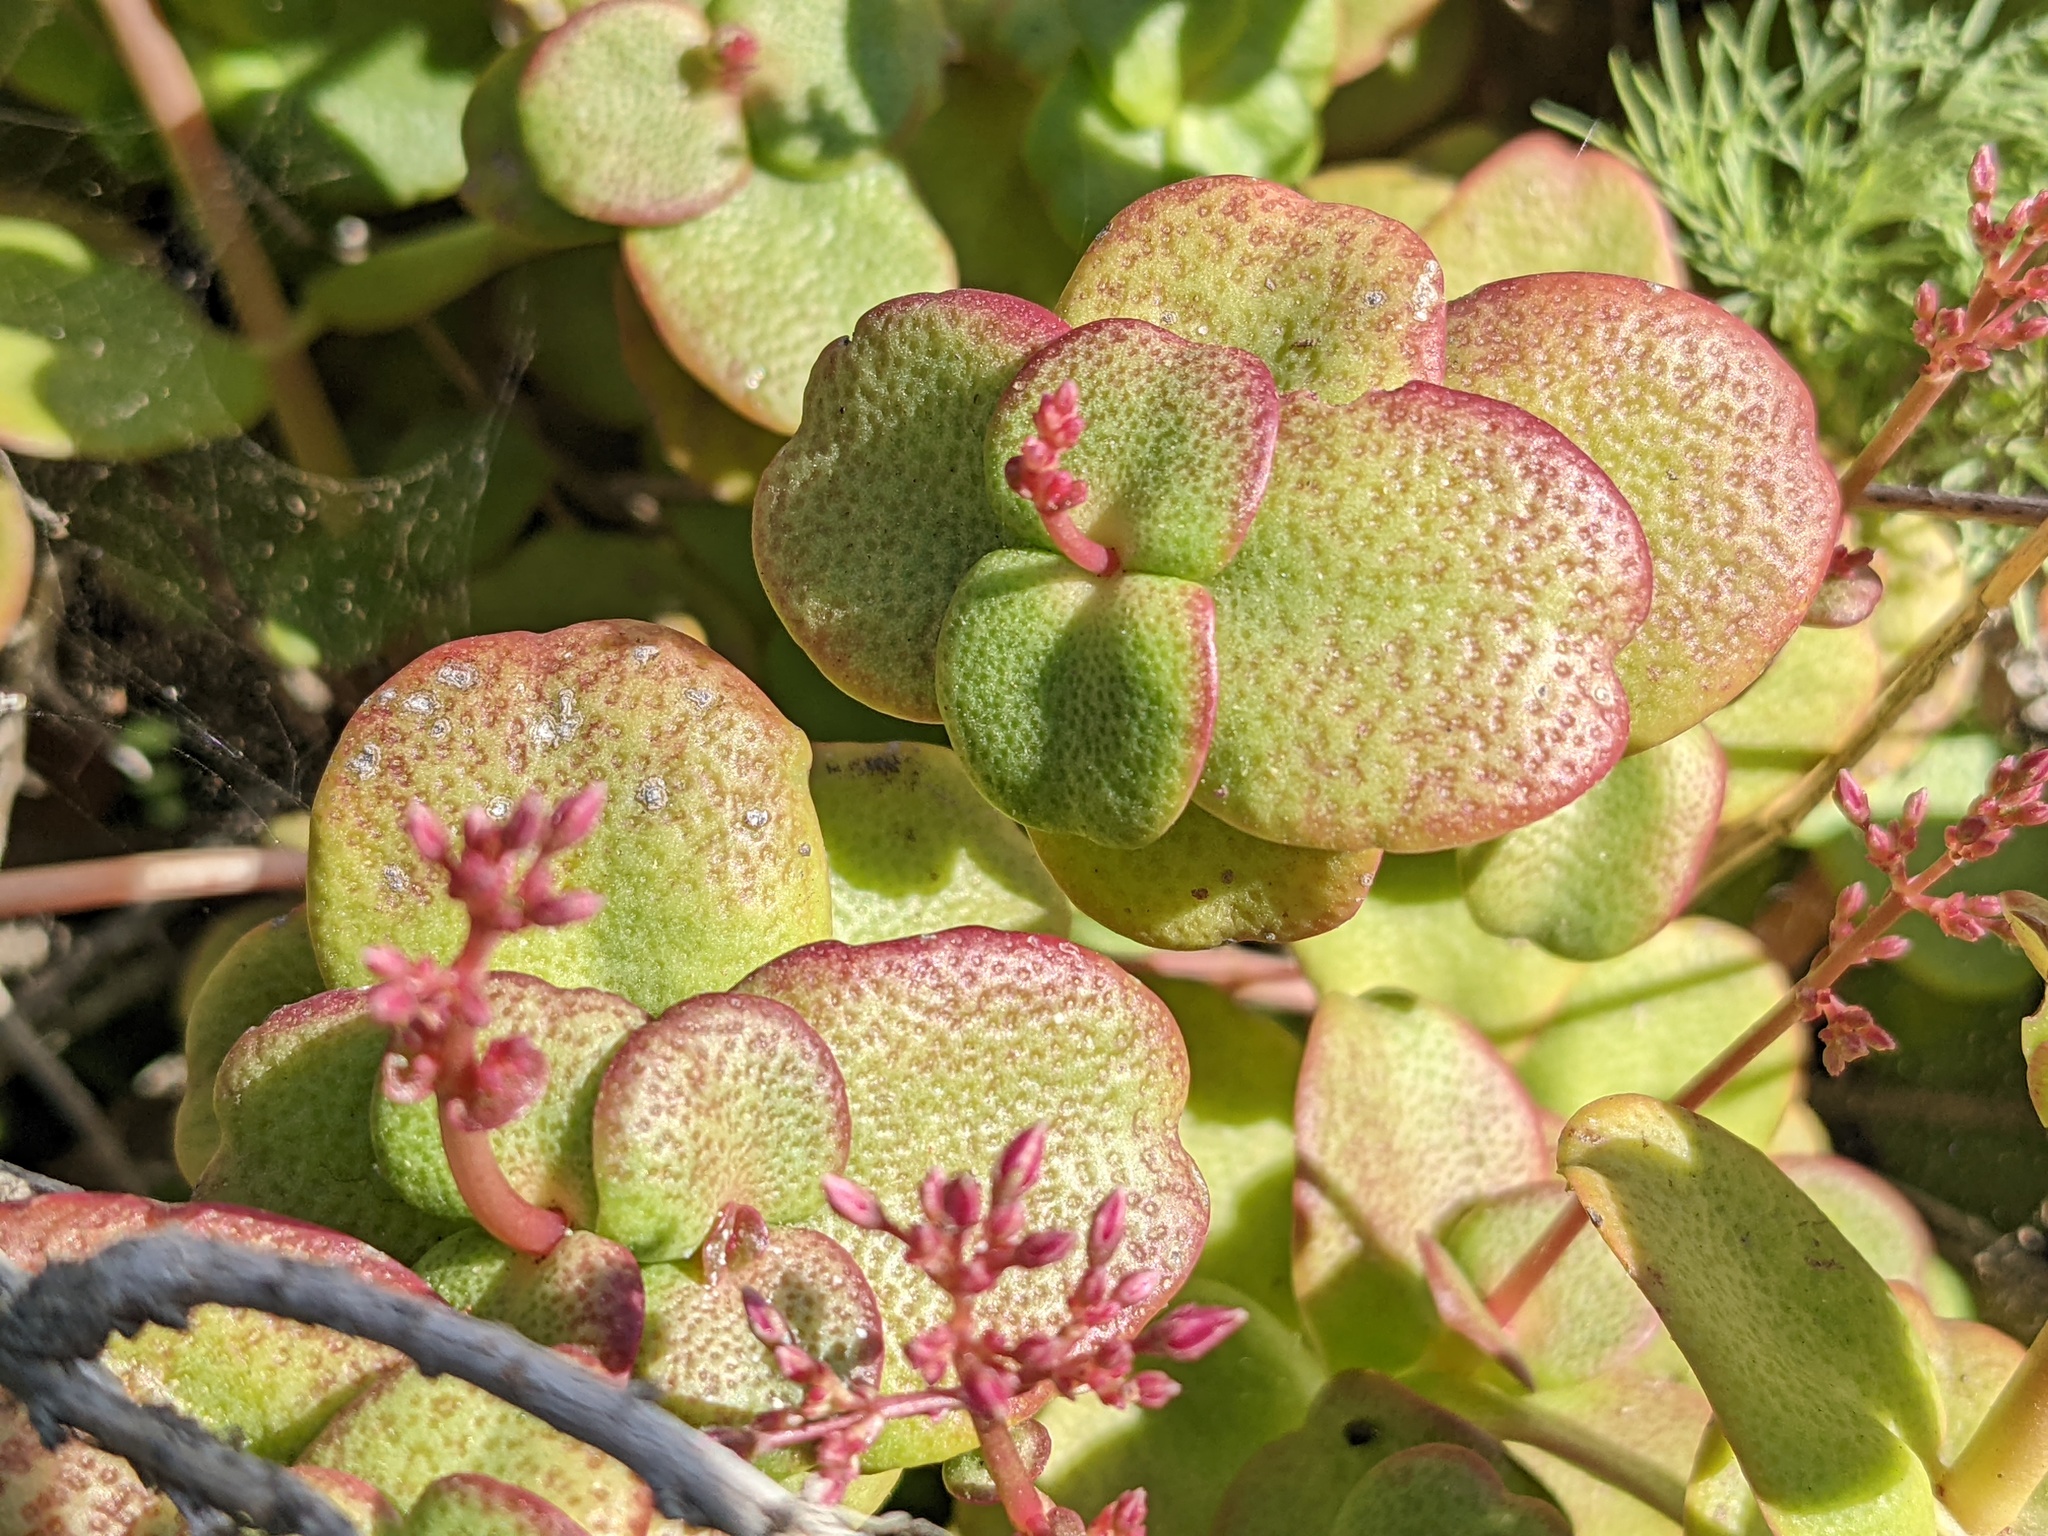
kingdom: Plantae
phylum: Tracheophyta
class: Magnoliopsida
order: Saxifragales
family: Crassulaceae
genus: Crassula
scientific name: Crassula multicava
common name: Cape province pygmyweed
